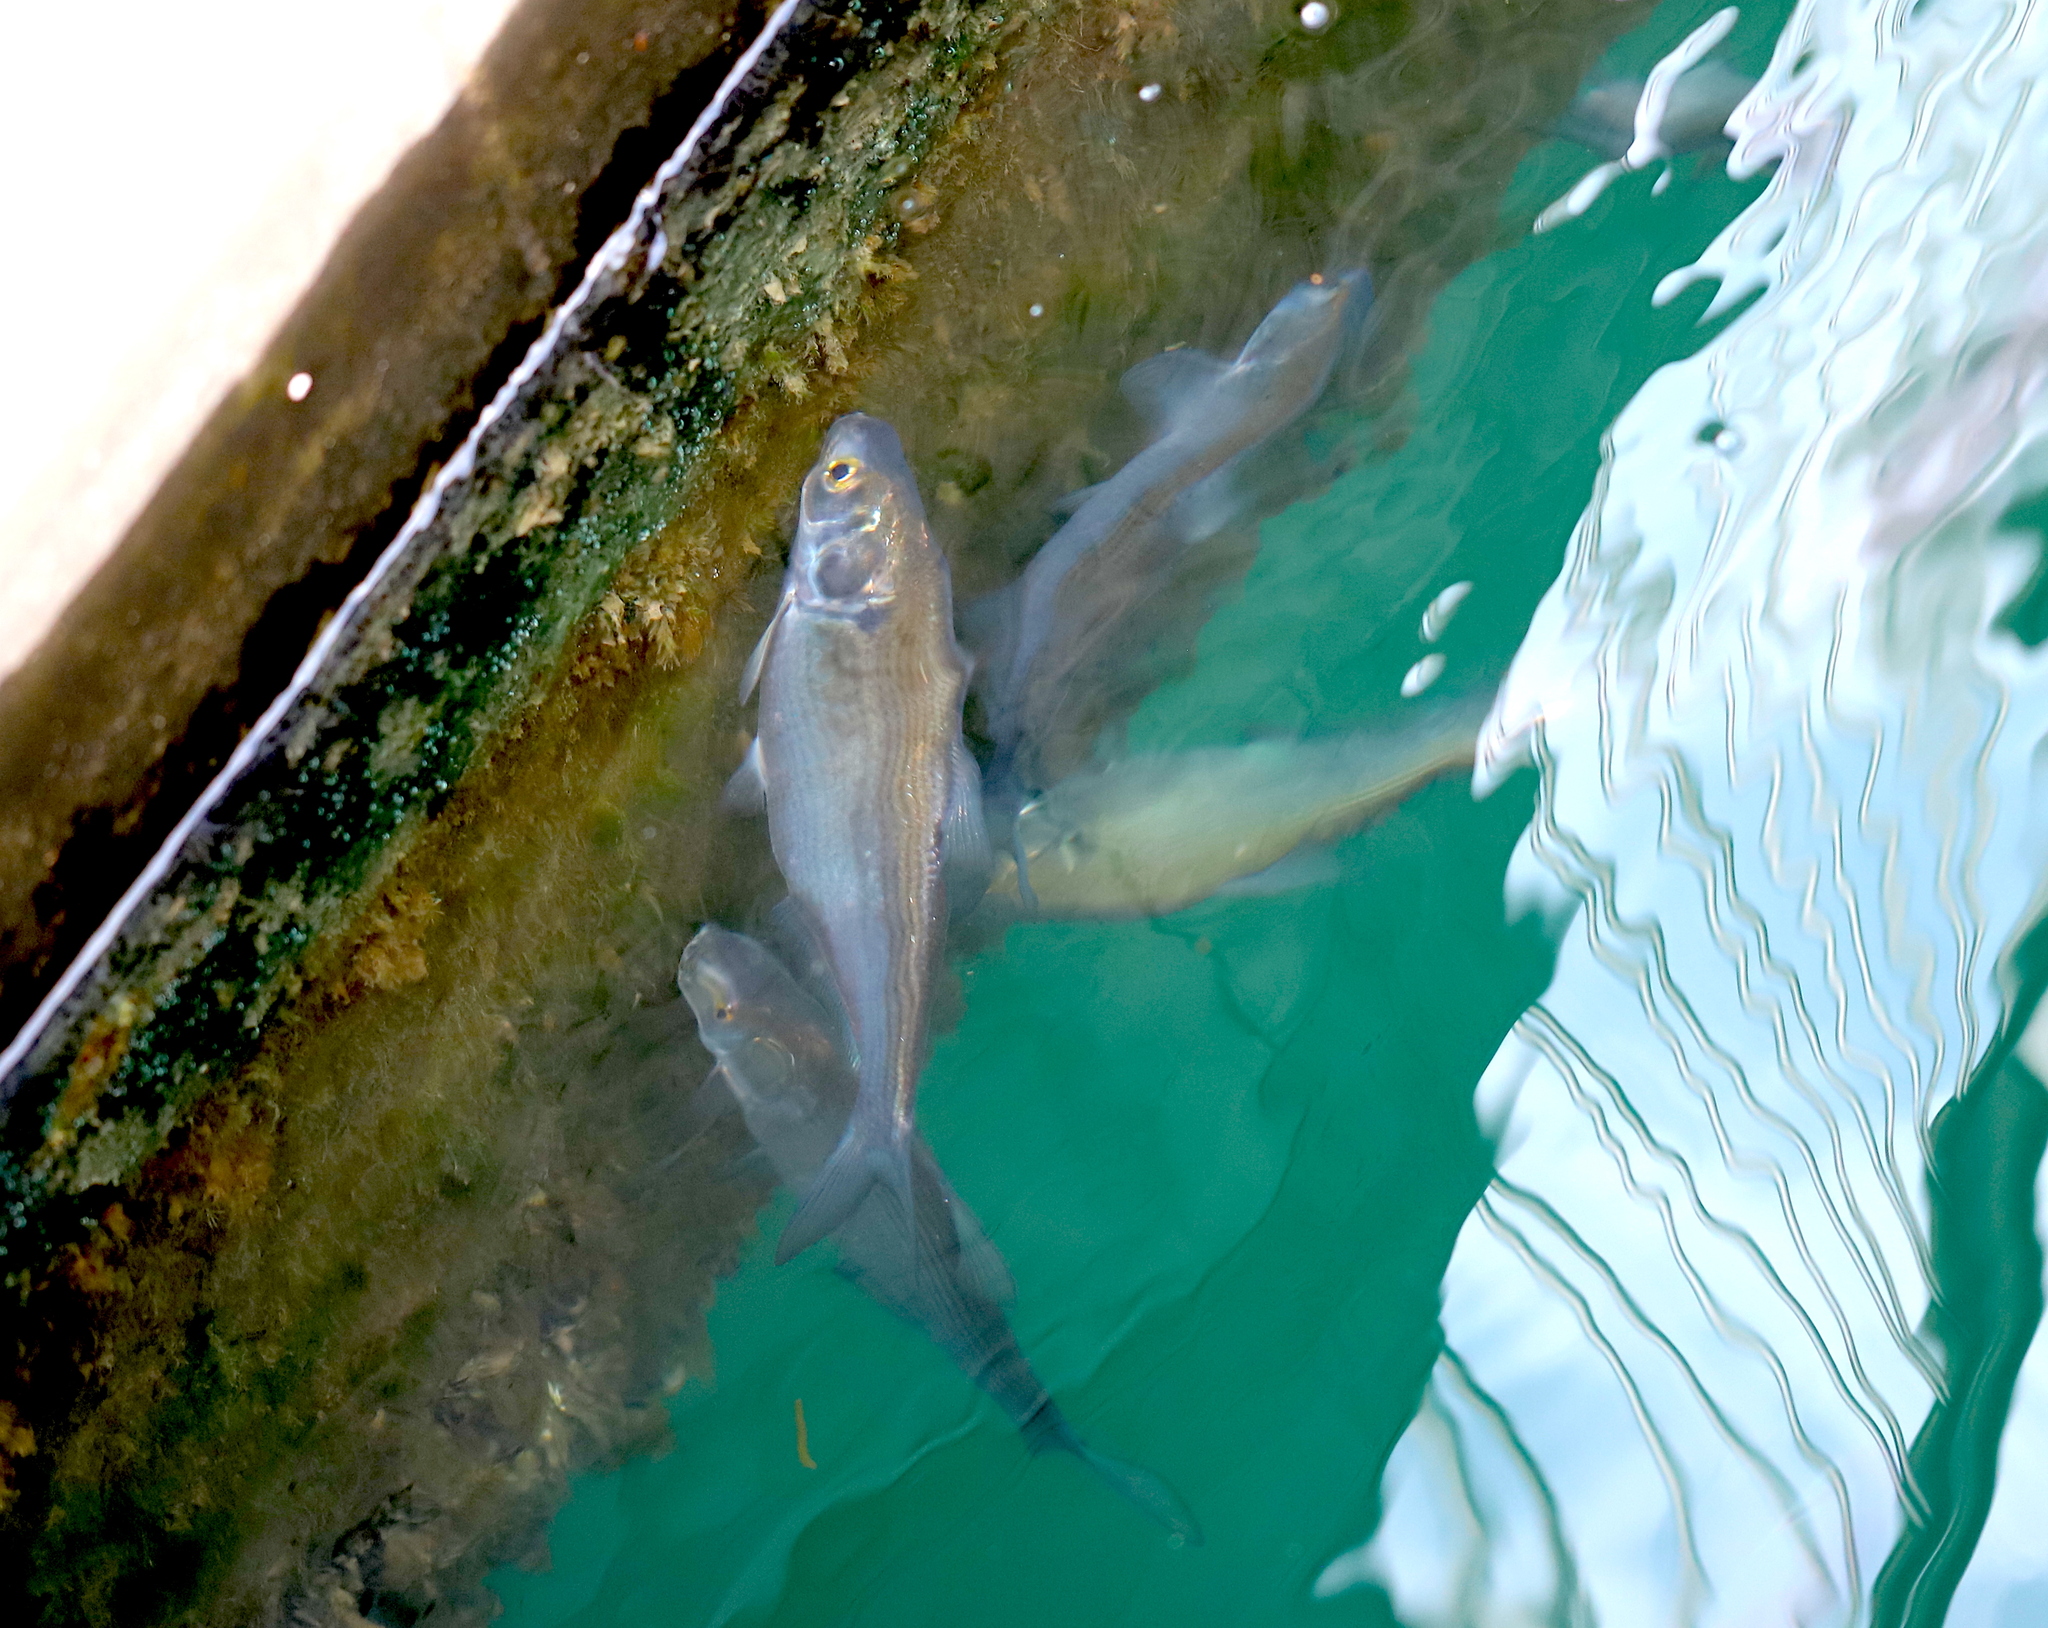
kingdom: Animalia
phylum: Chordata
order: Clupeiformes
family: Clupeidae
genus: Dorosoma
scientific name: Dorosoma cepedianum
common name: Gizzard shad
